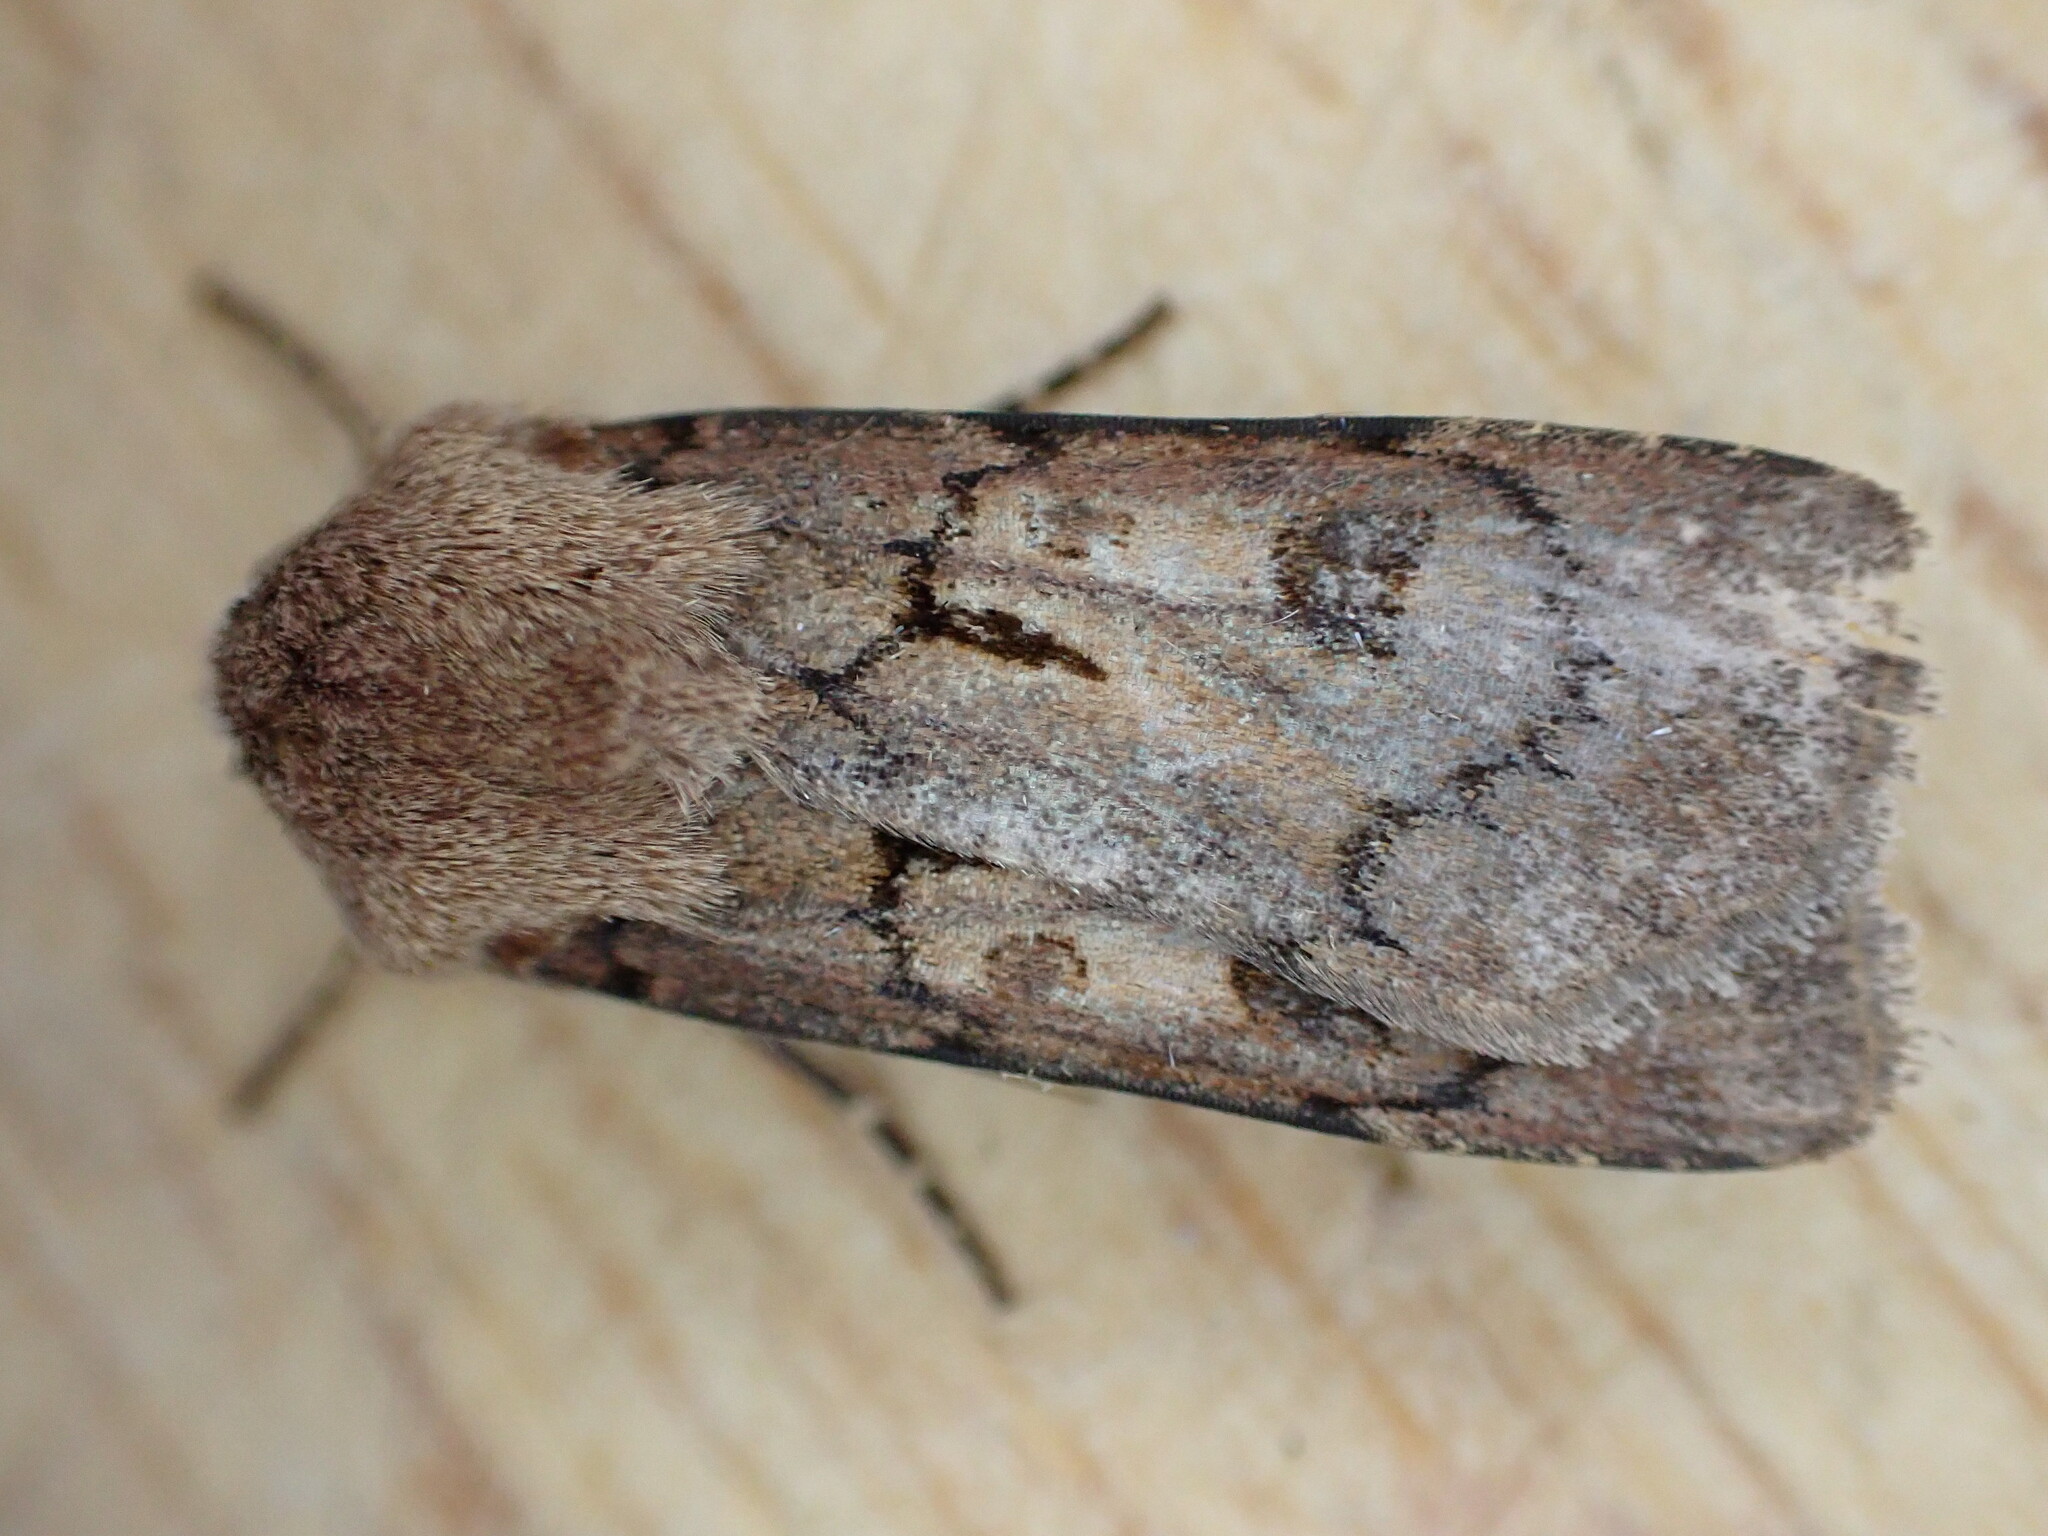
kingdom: Animalia
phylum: Arthropoda
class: Insecta
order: Lepidoptera
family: Noctuidae
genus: Agrotis
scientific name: Agrotis segetum
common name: Turnip moth
